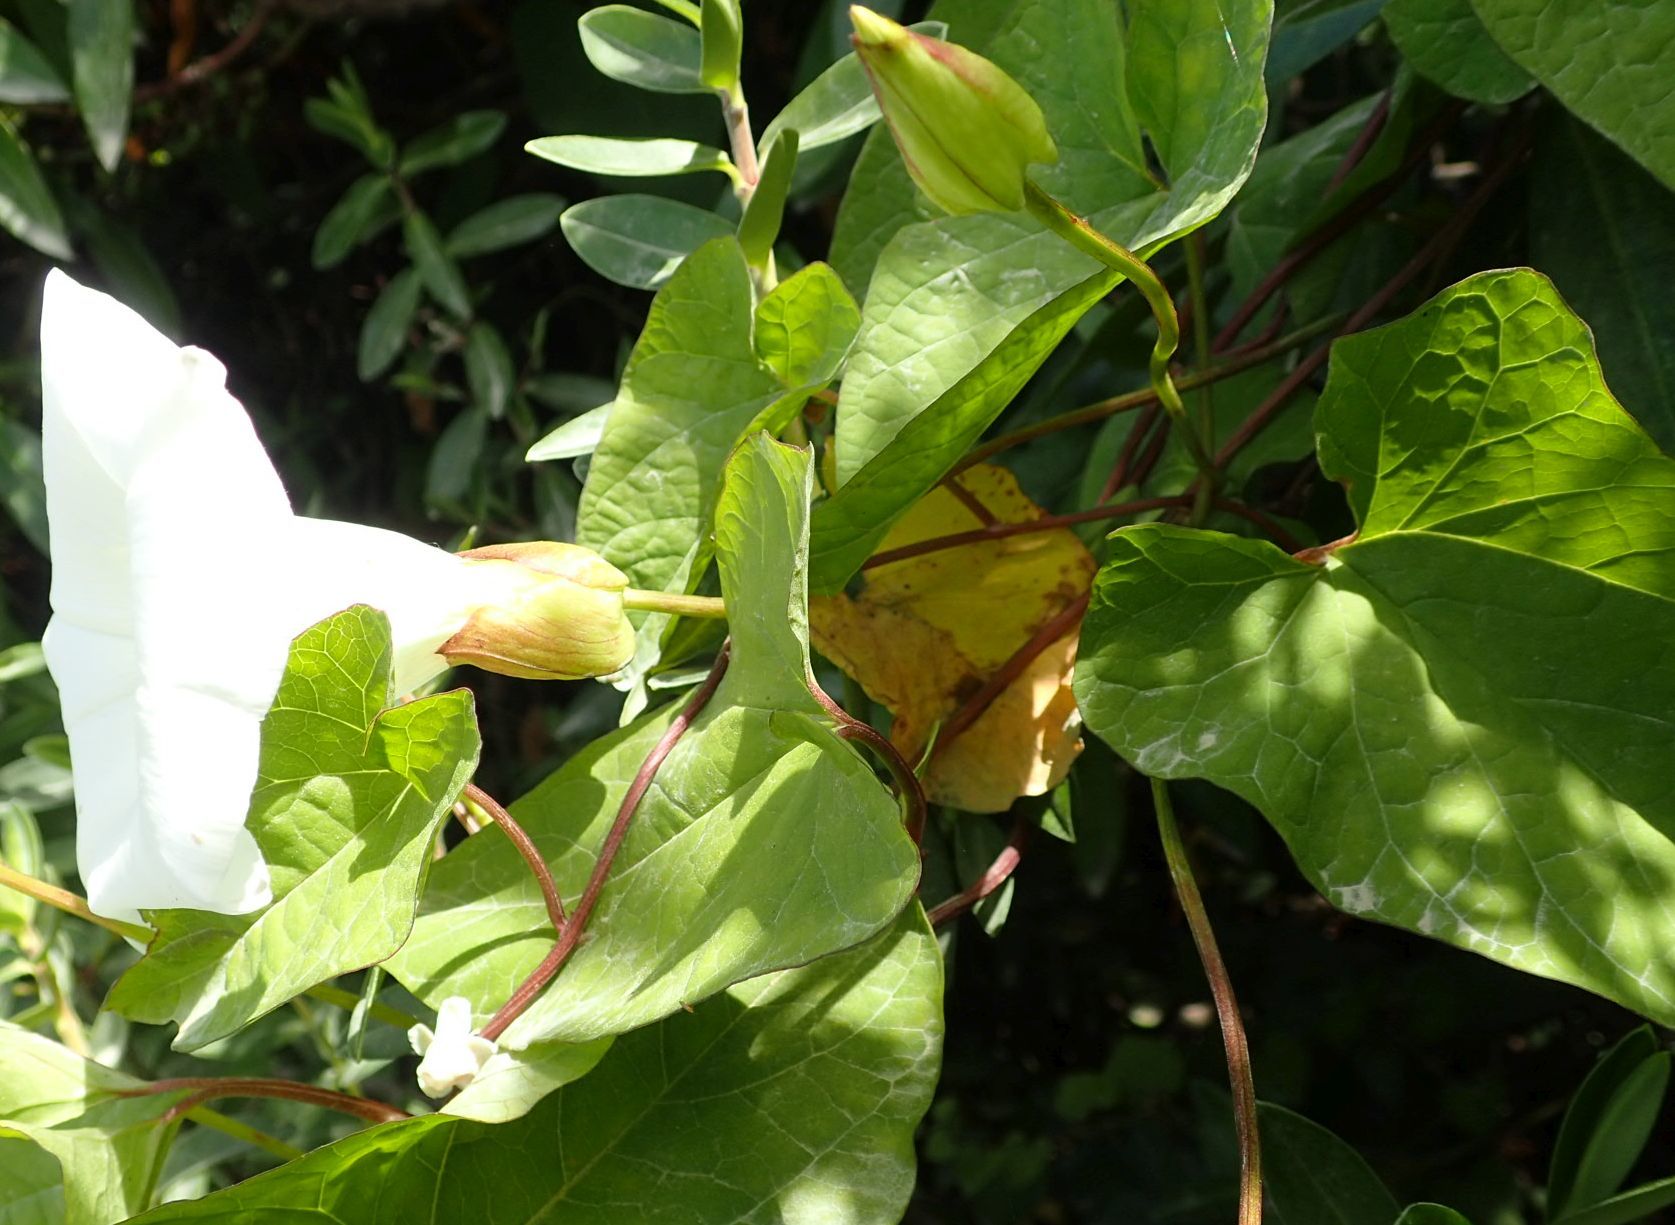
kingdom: Plantae
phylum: Tracheophyta
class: Magnoliopsida
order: Solanales
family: Convolvulaceae
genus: Calystegia
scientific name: Calystegia silvatica
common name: Large bindweed
